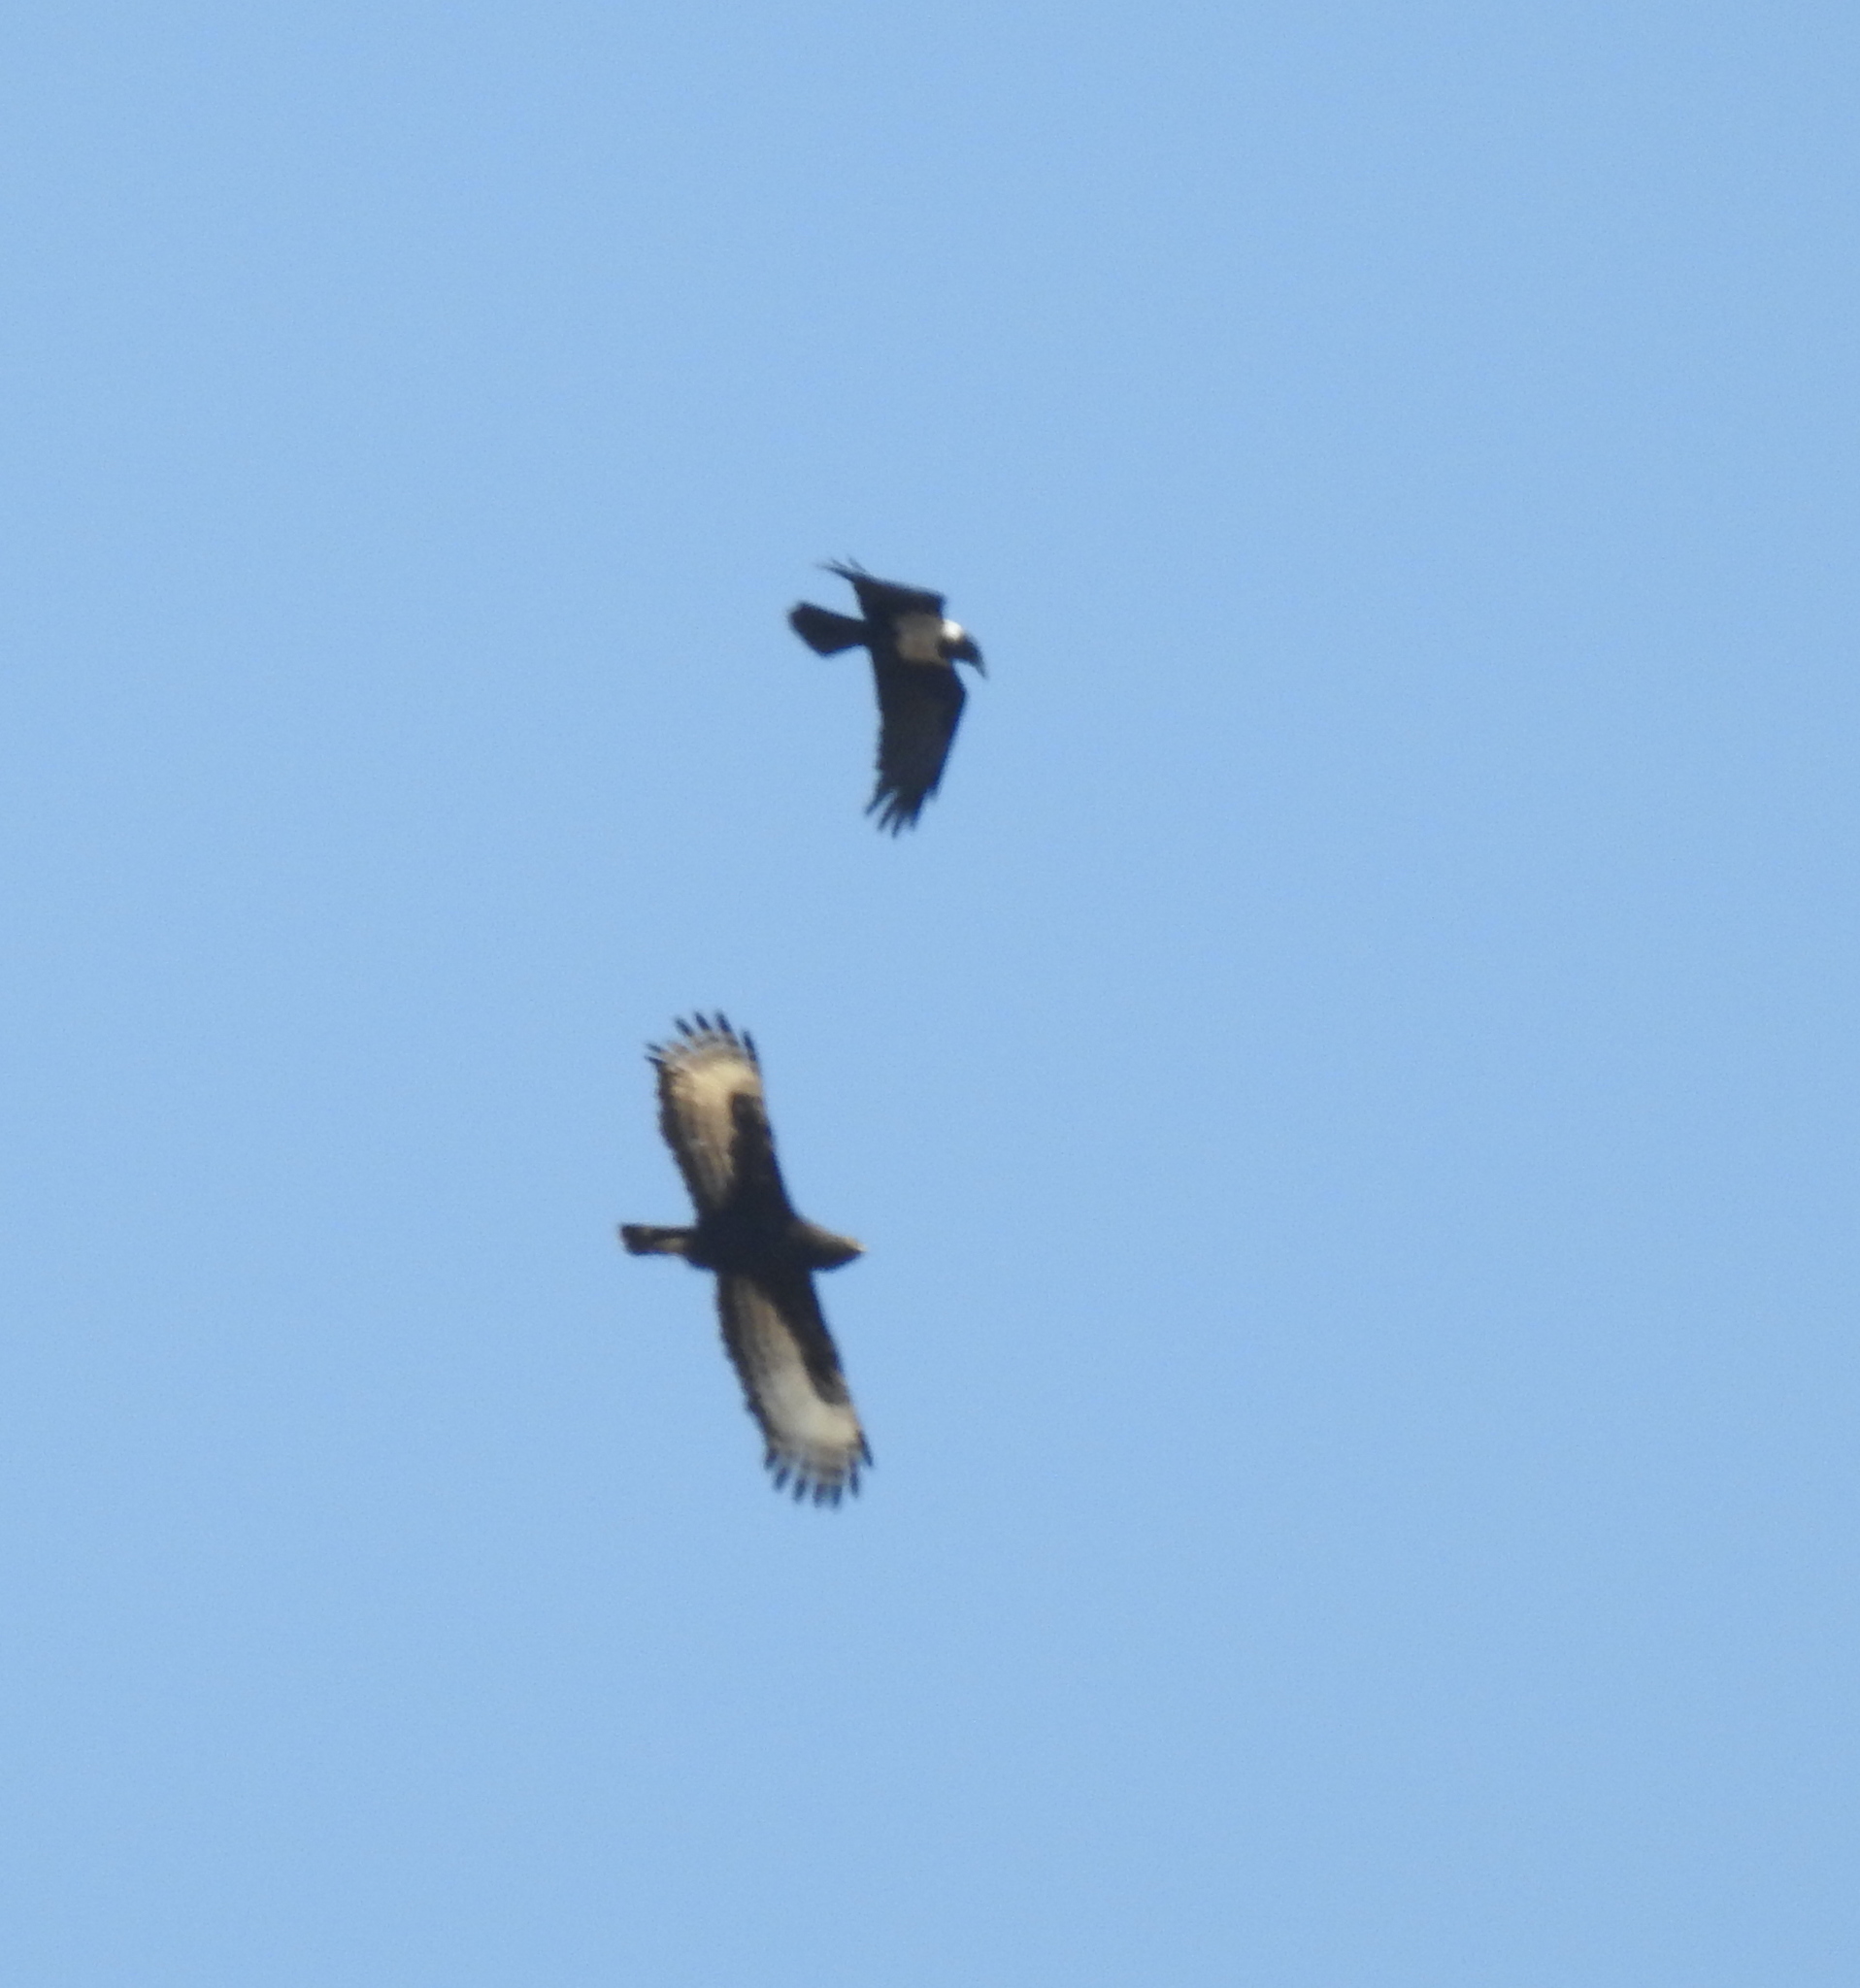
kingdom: Animalia
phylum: Chordata
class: Aves
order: Accipitriformes
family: Accipitridae
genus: Lophaetus
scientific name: Lophaetus occipitalis
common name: Long-crested eagle
